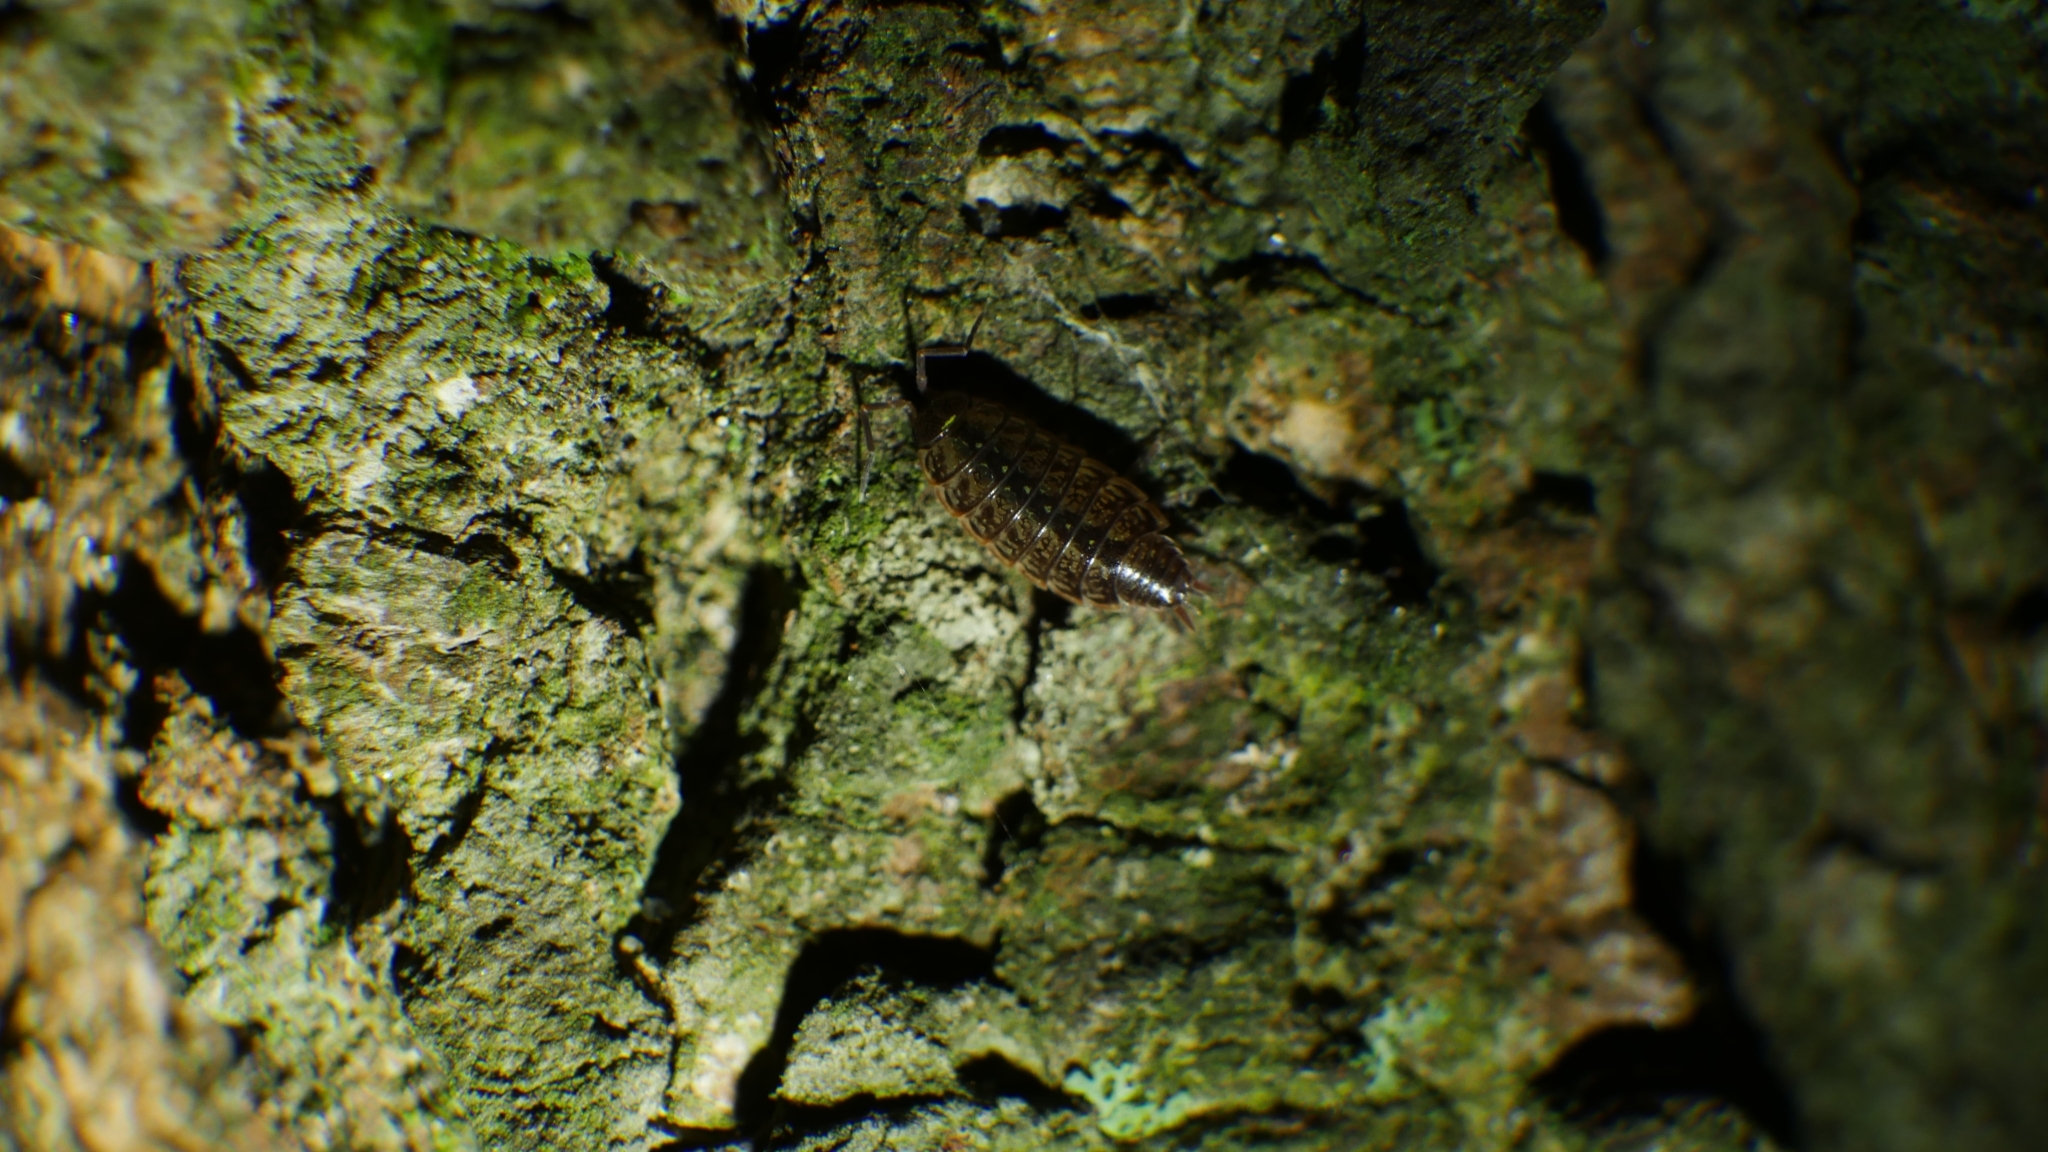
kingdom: Animalia
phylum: Arthropoda
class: Malacostraca
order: Isopoda
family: Philosciidae
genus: Philoscia
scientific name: Philoscia muscorum
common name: Common striped woodlouse
